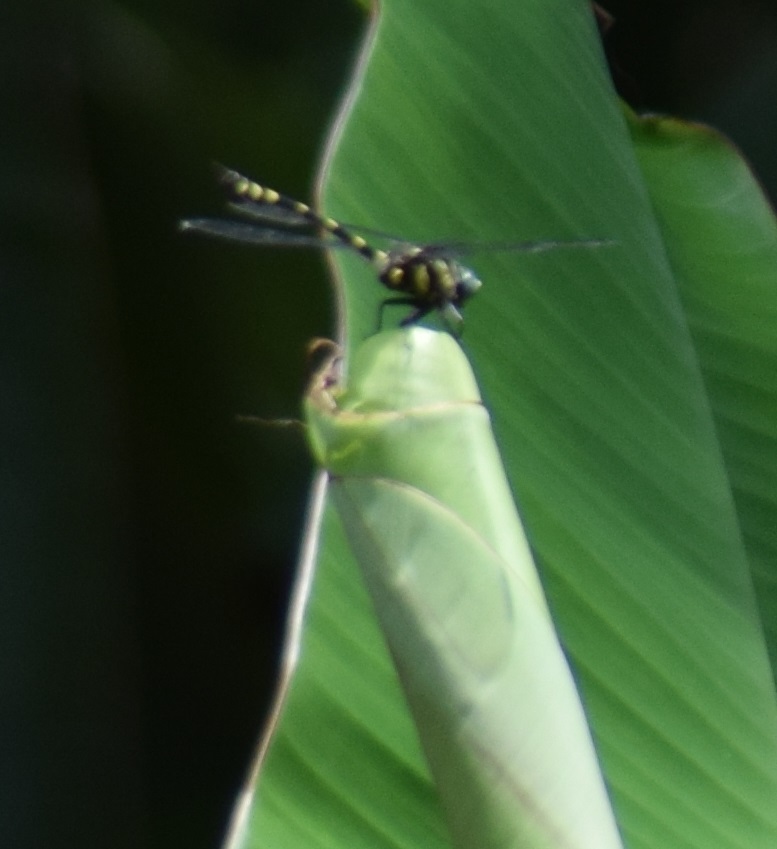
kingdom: Animalia
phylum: Arthropoda
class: Insecta
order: Odonata
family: Gomphidae
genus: Ictinogomphus
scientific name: Ictinogomphus rapax
